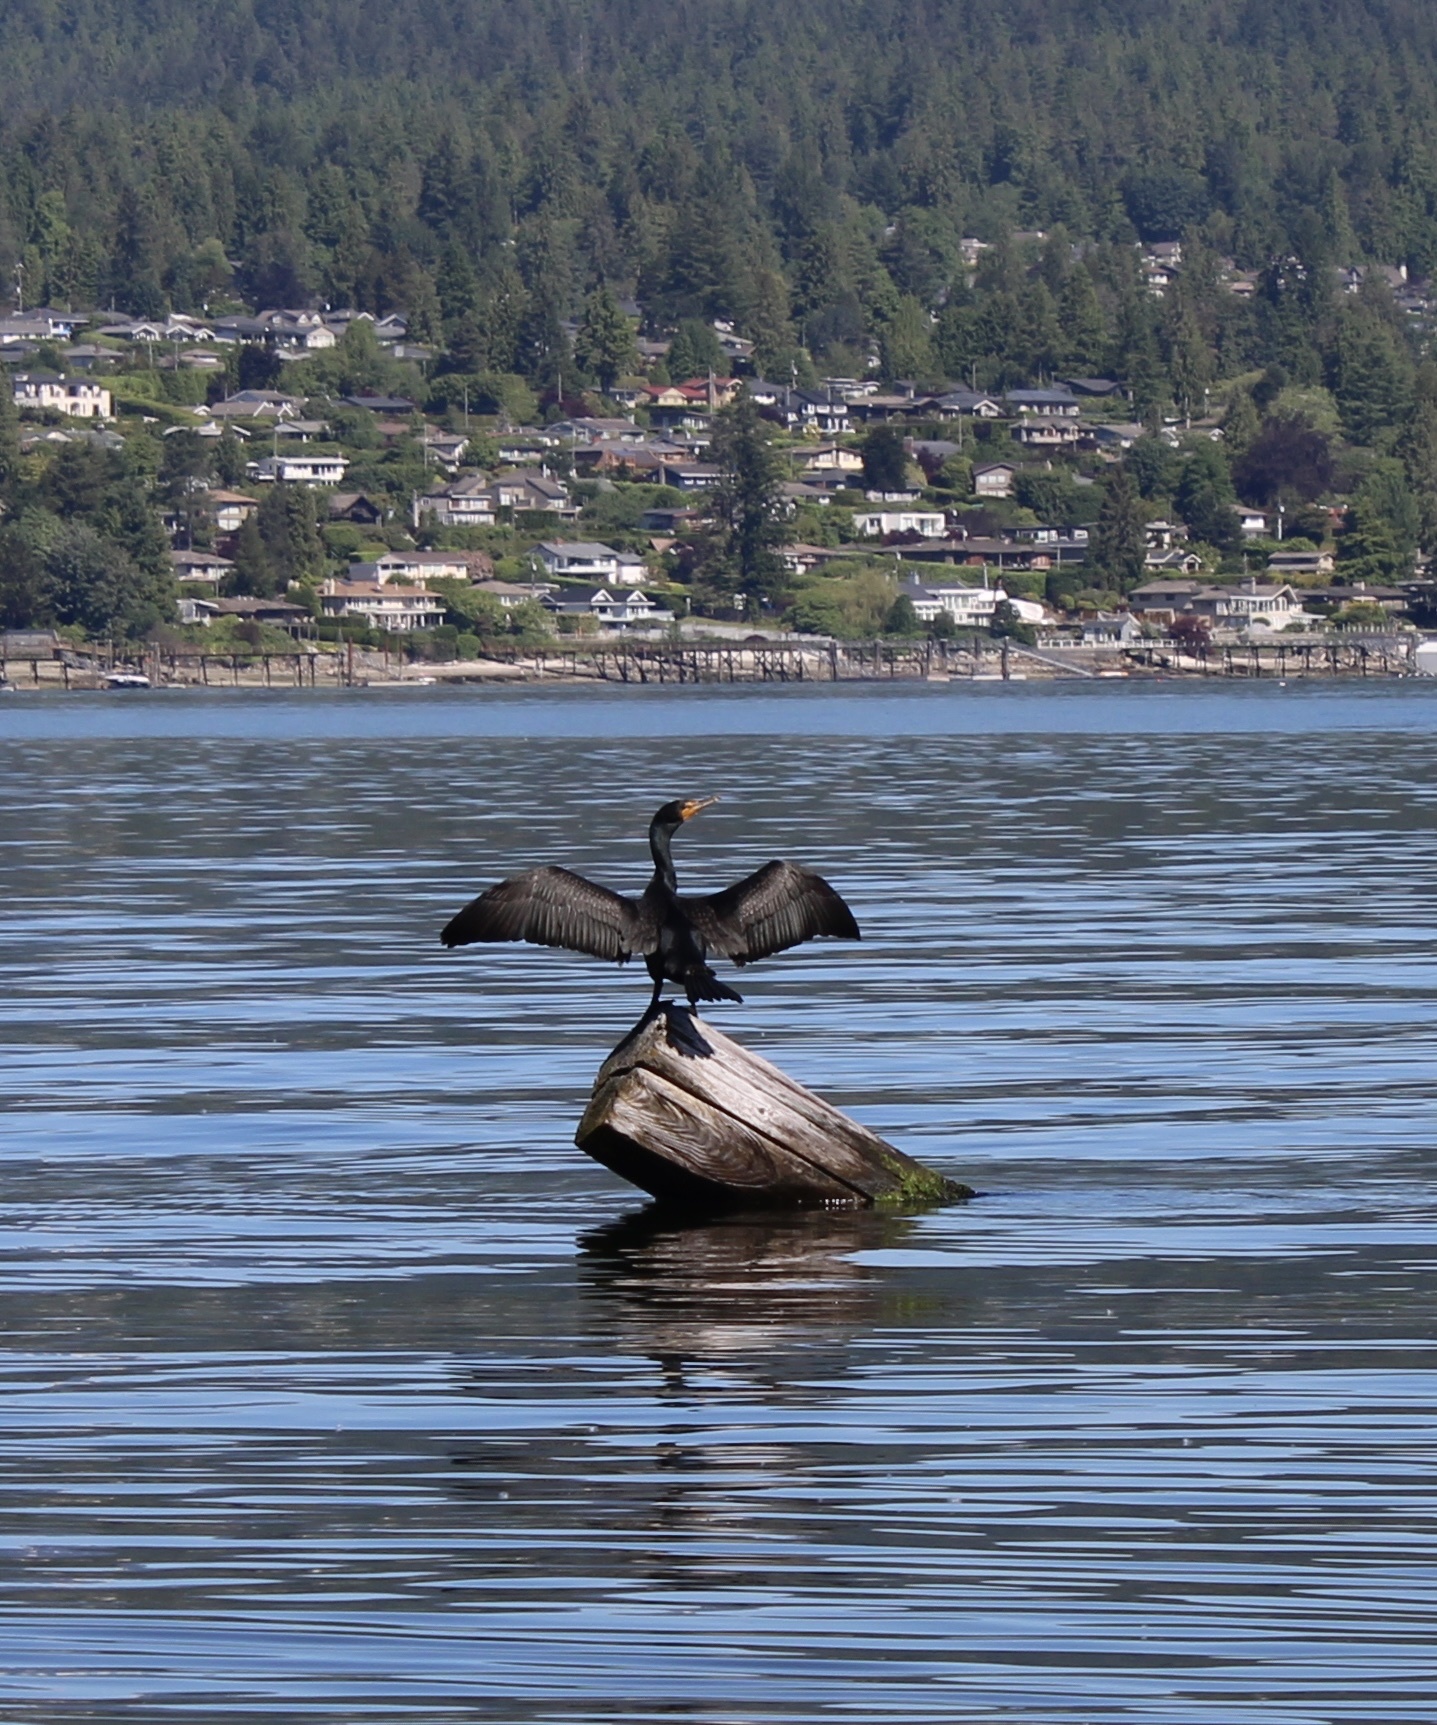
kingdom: Animalia
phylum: Chordata
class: Aves
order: Suliformes
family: Phalacrocoracidae
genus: Phalacrocorax
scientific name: Phalacrocorax auritus
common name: Double-crested cormorant
